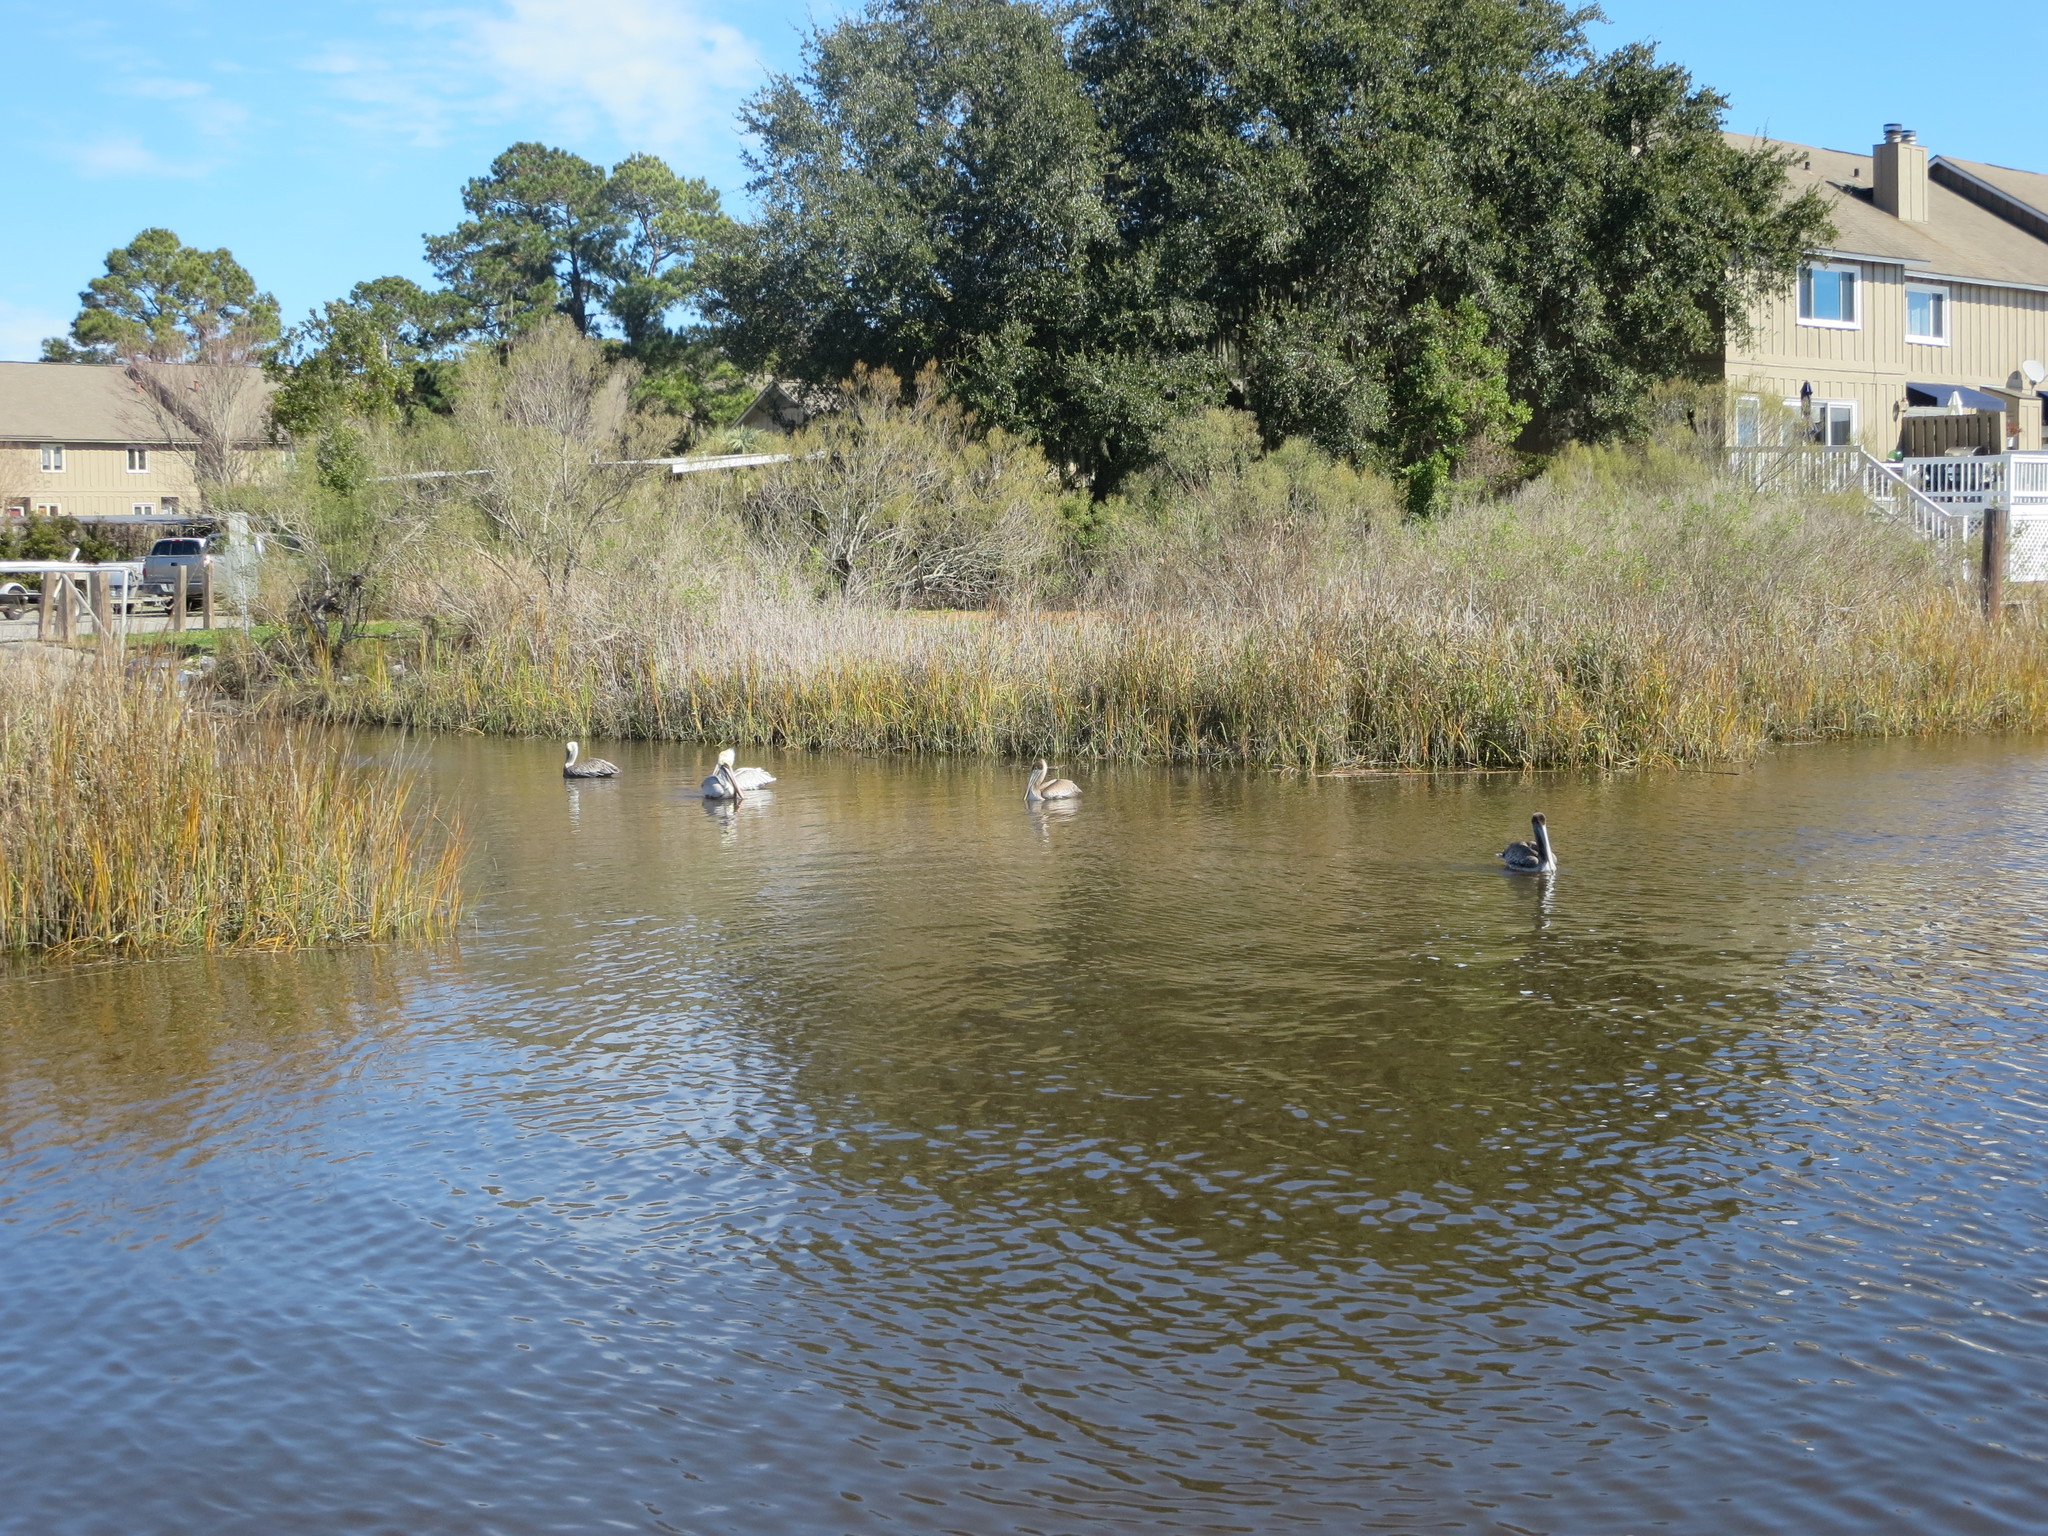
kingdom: Animalia
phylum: Chordata
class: Aves
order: Pelecaniformes
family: Pelecanidae
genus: Pelecanus
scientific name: Pelecanus occidentalis
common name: Brown pelican
